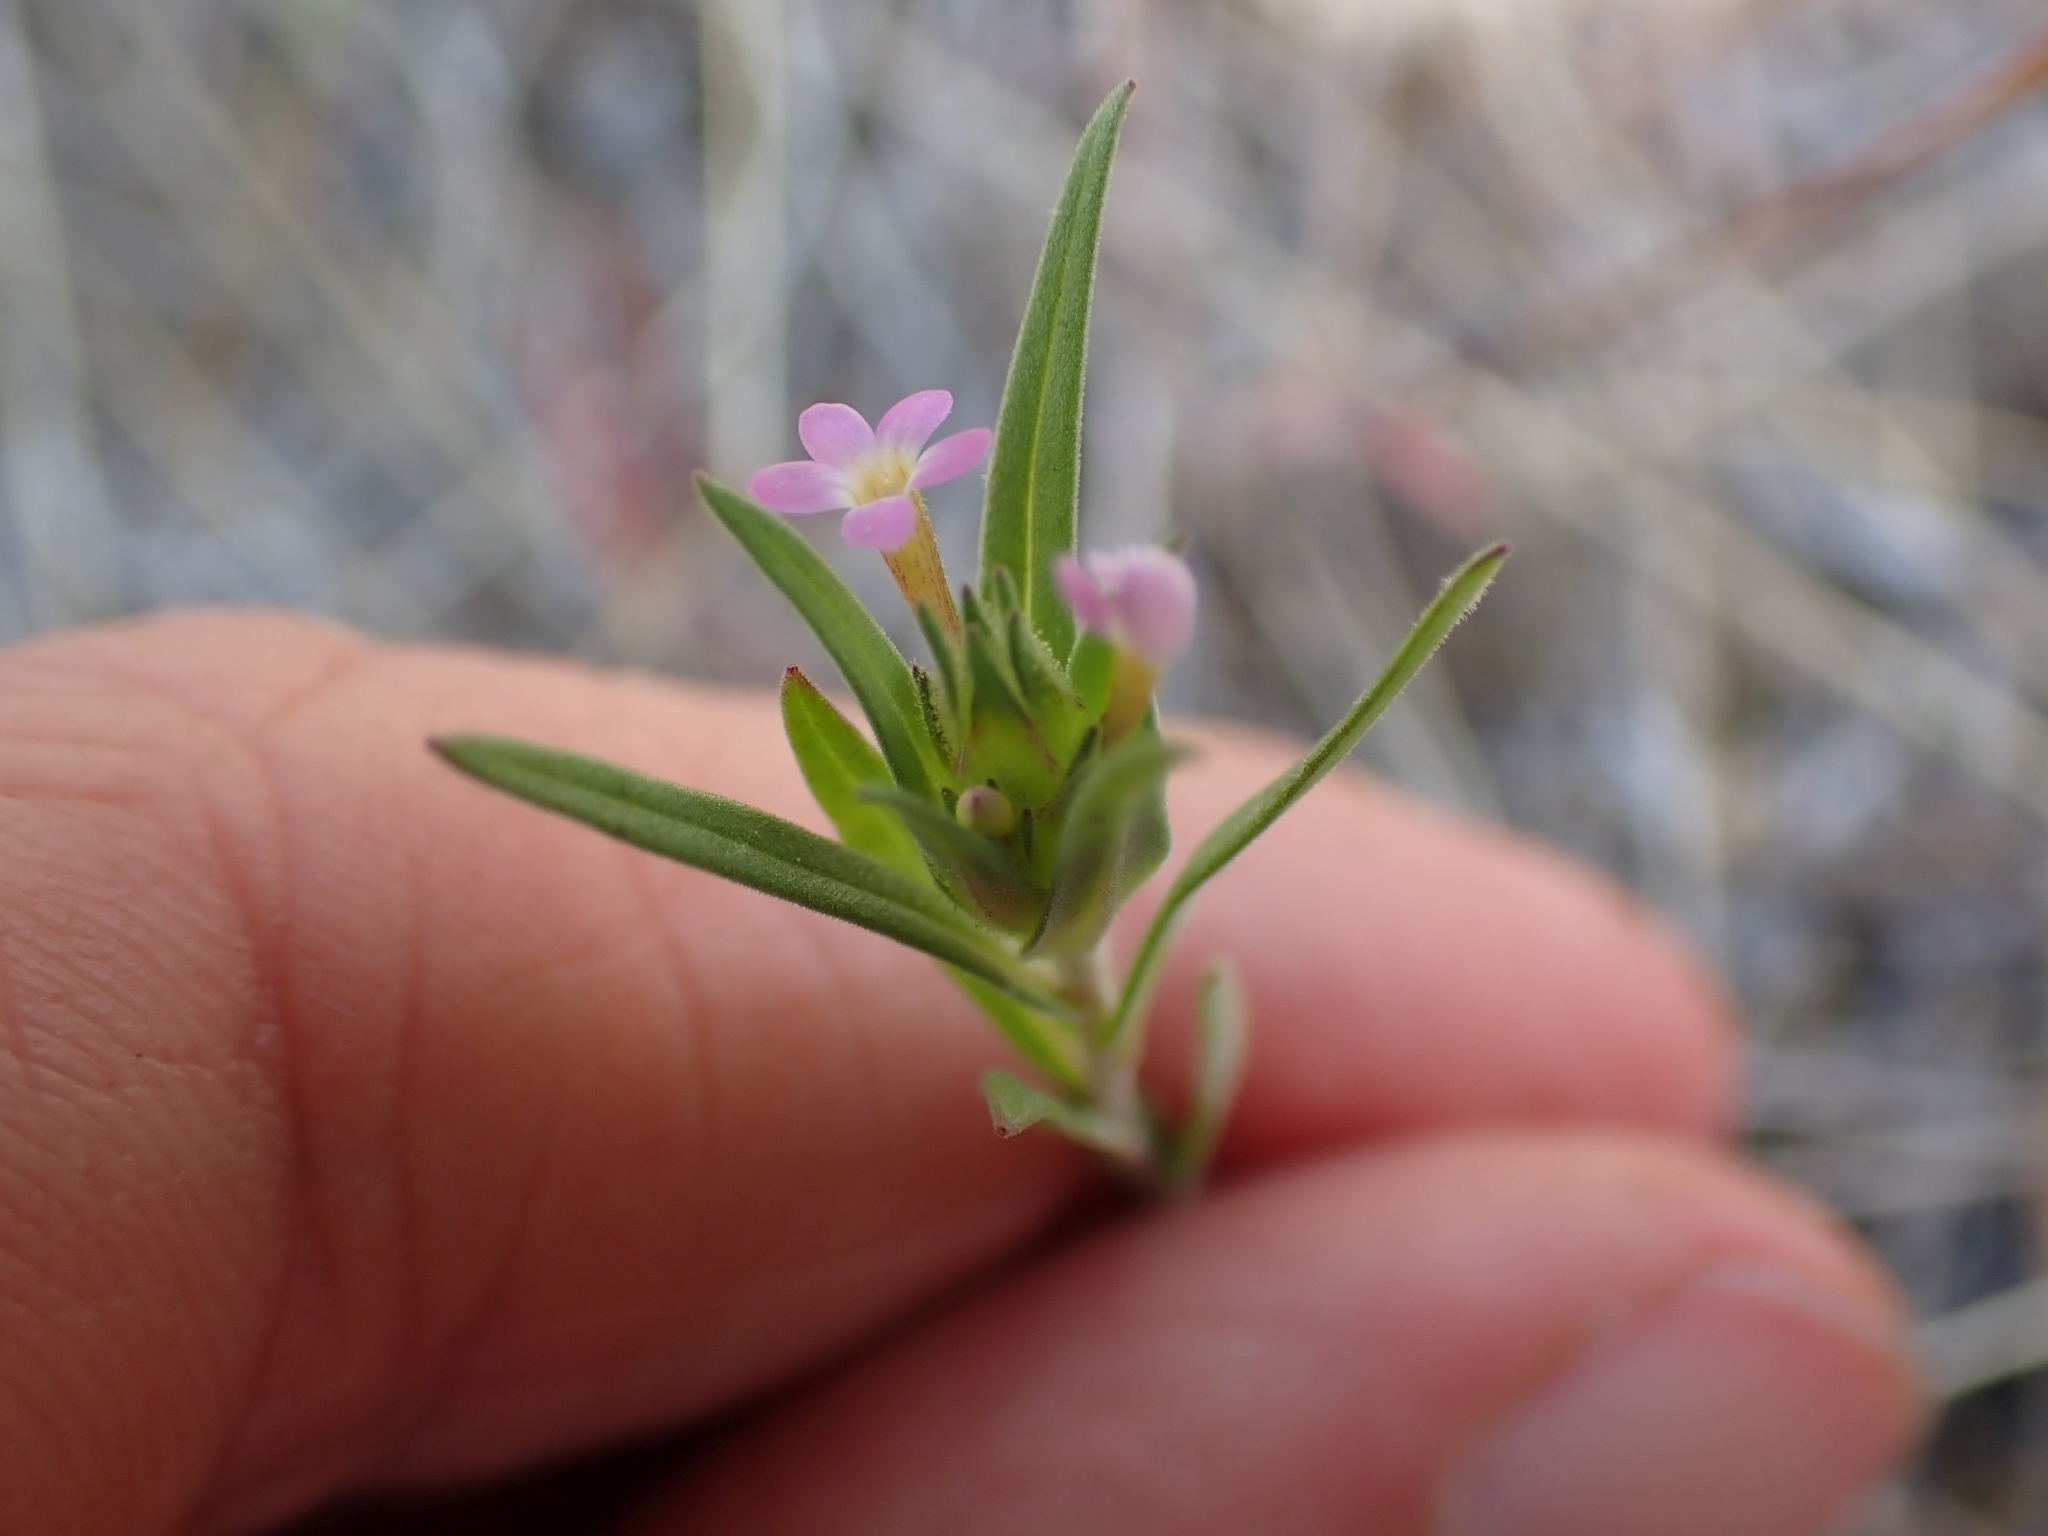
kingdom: Plantae
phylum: Tracheophyta
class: Magnoliopsida
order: Ericales
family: Polemoniaceae
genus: Collomia
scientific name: Collomia linearis
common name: Tiny trumpet
